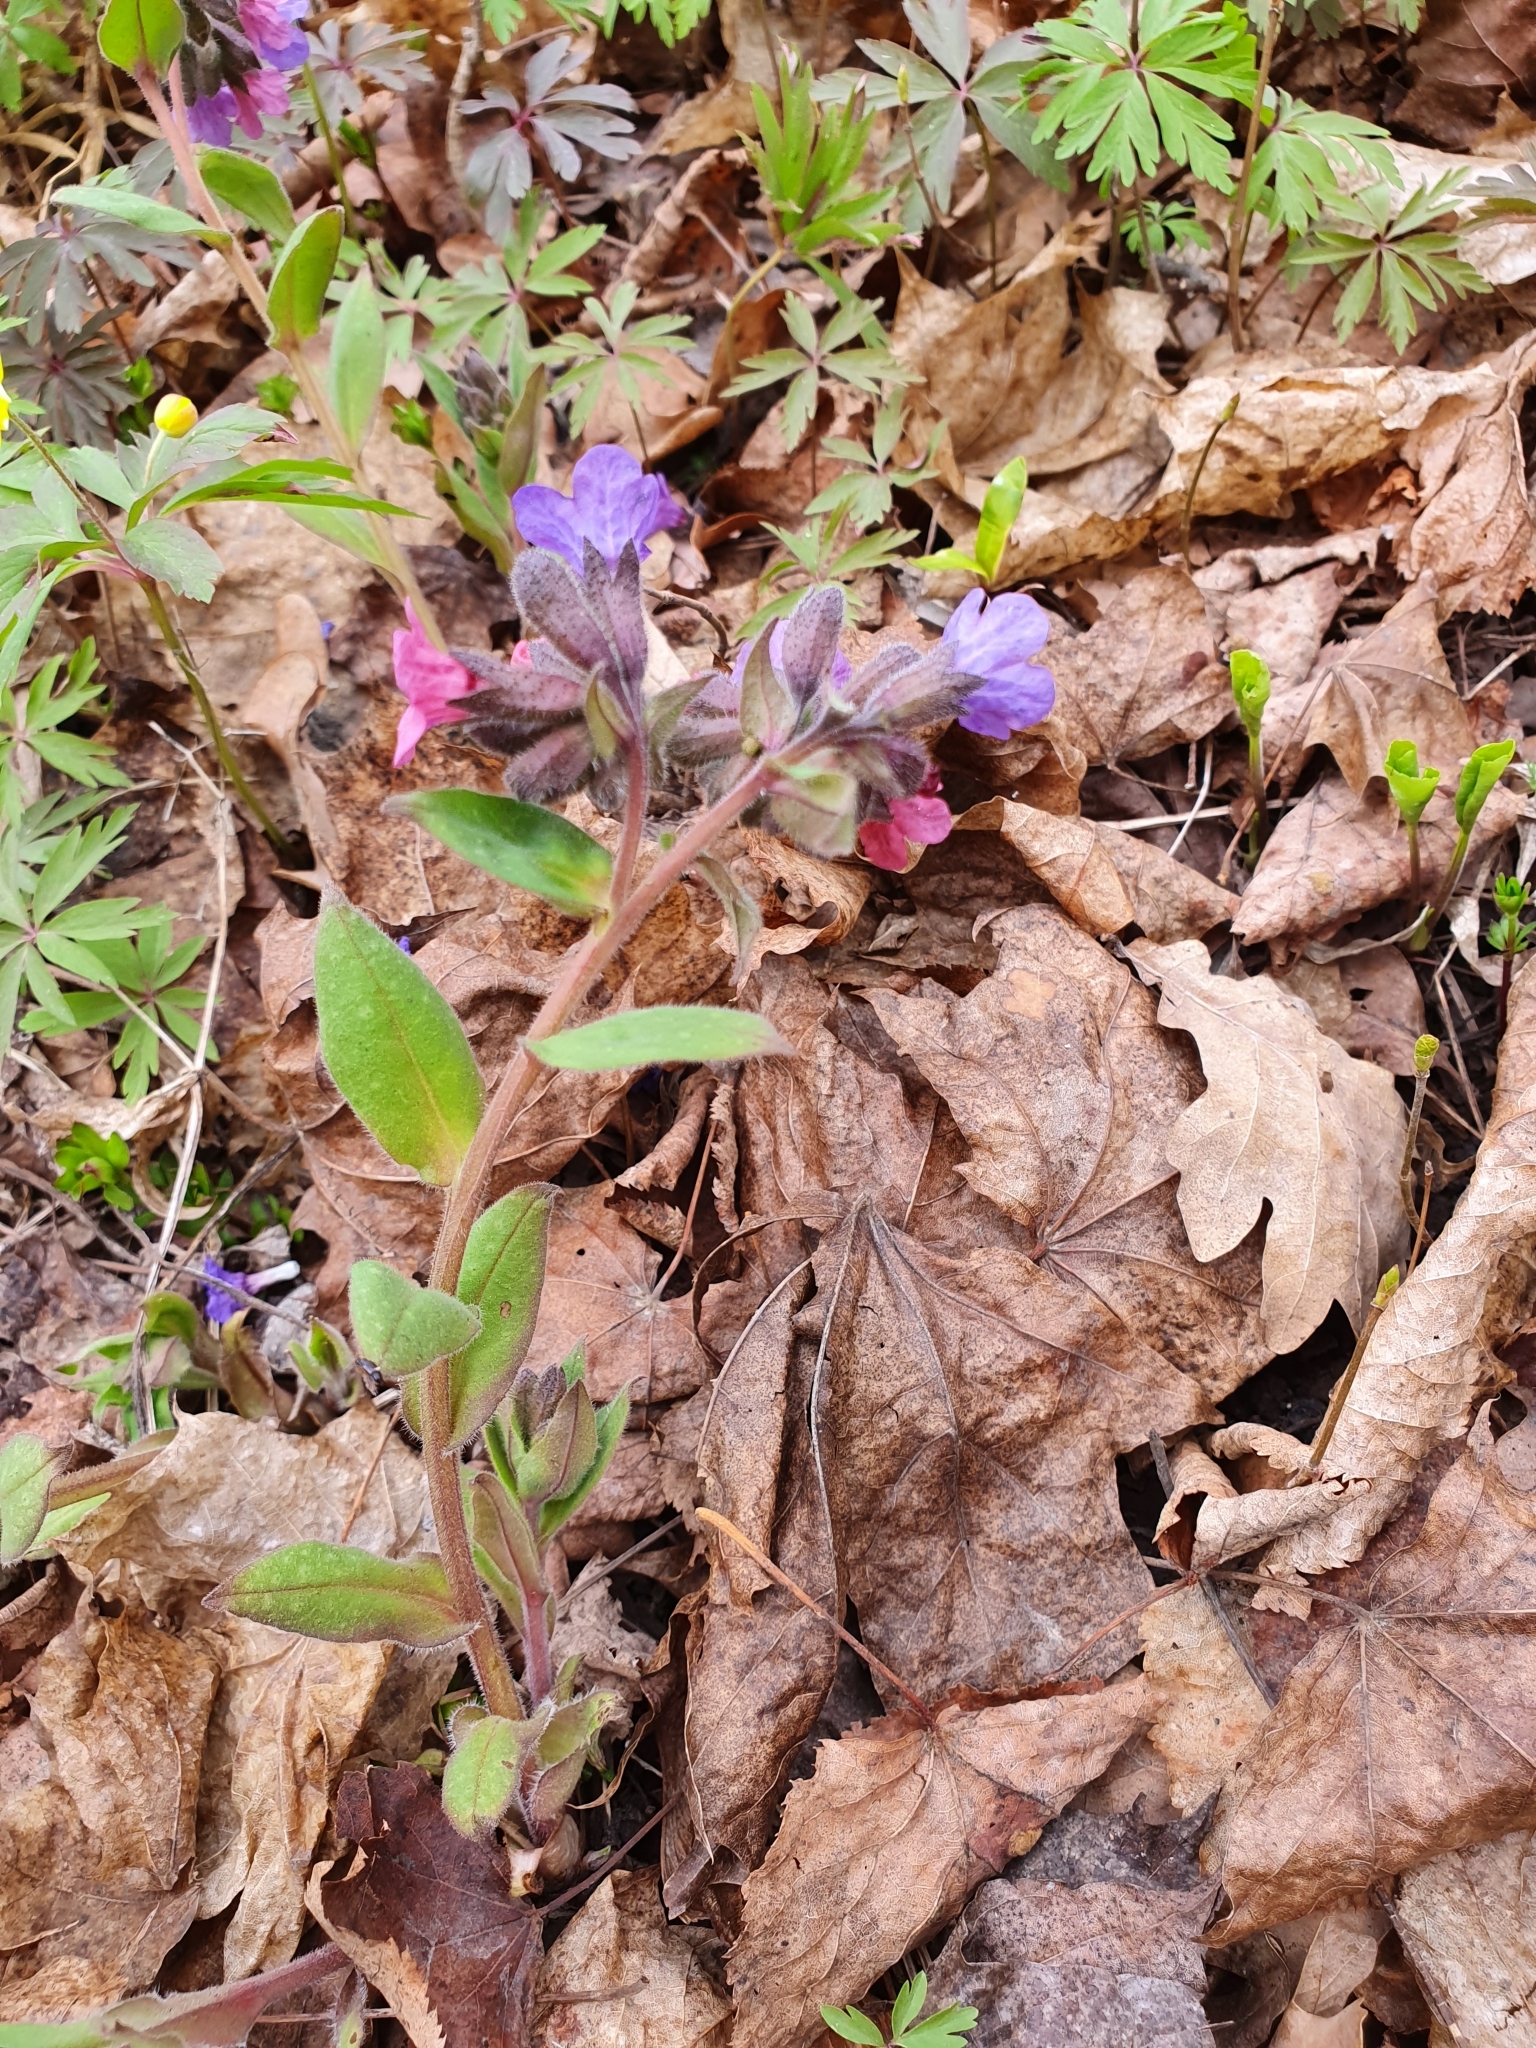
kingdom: Plantae
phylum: Tracheophyta
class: Magnoliopsida
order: Boraginales
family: Boraginaceae
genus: Pulmonaria
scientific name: Pulmonaria obscura
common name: Suffolk lungwort
